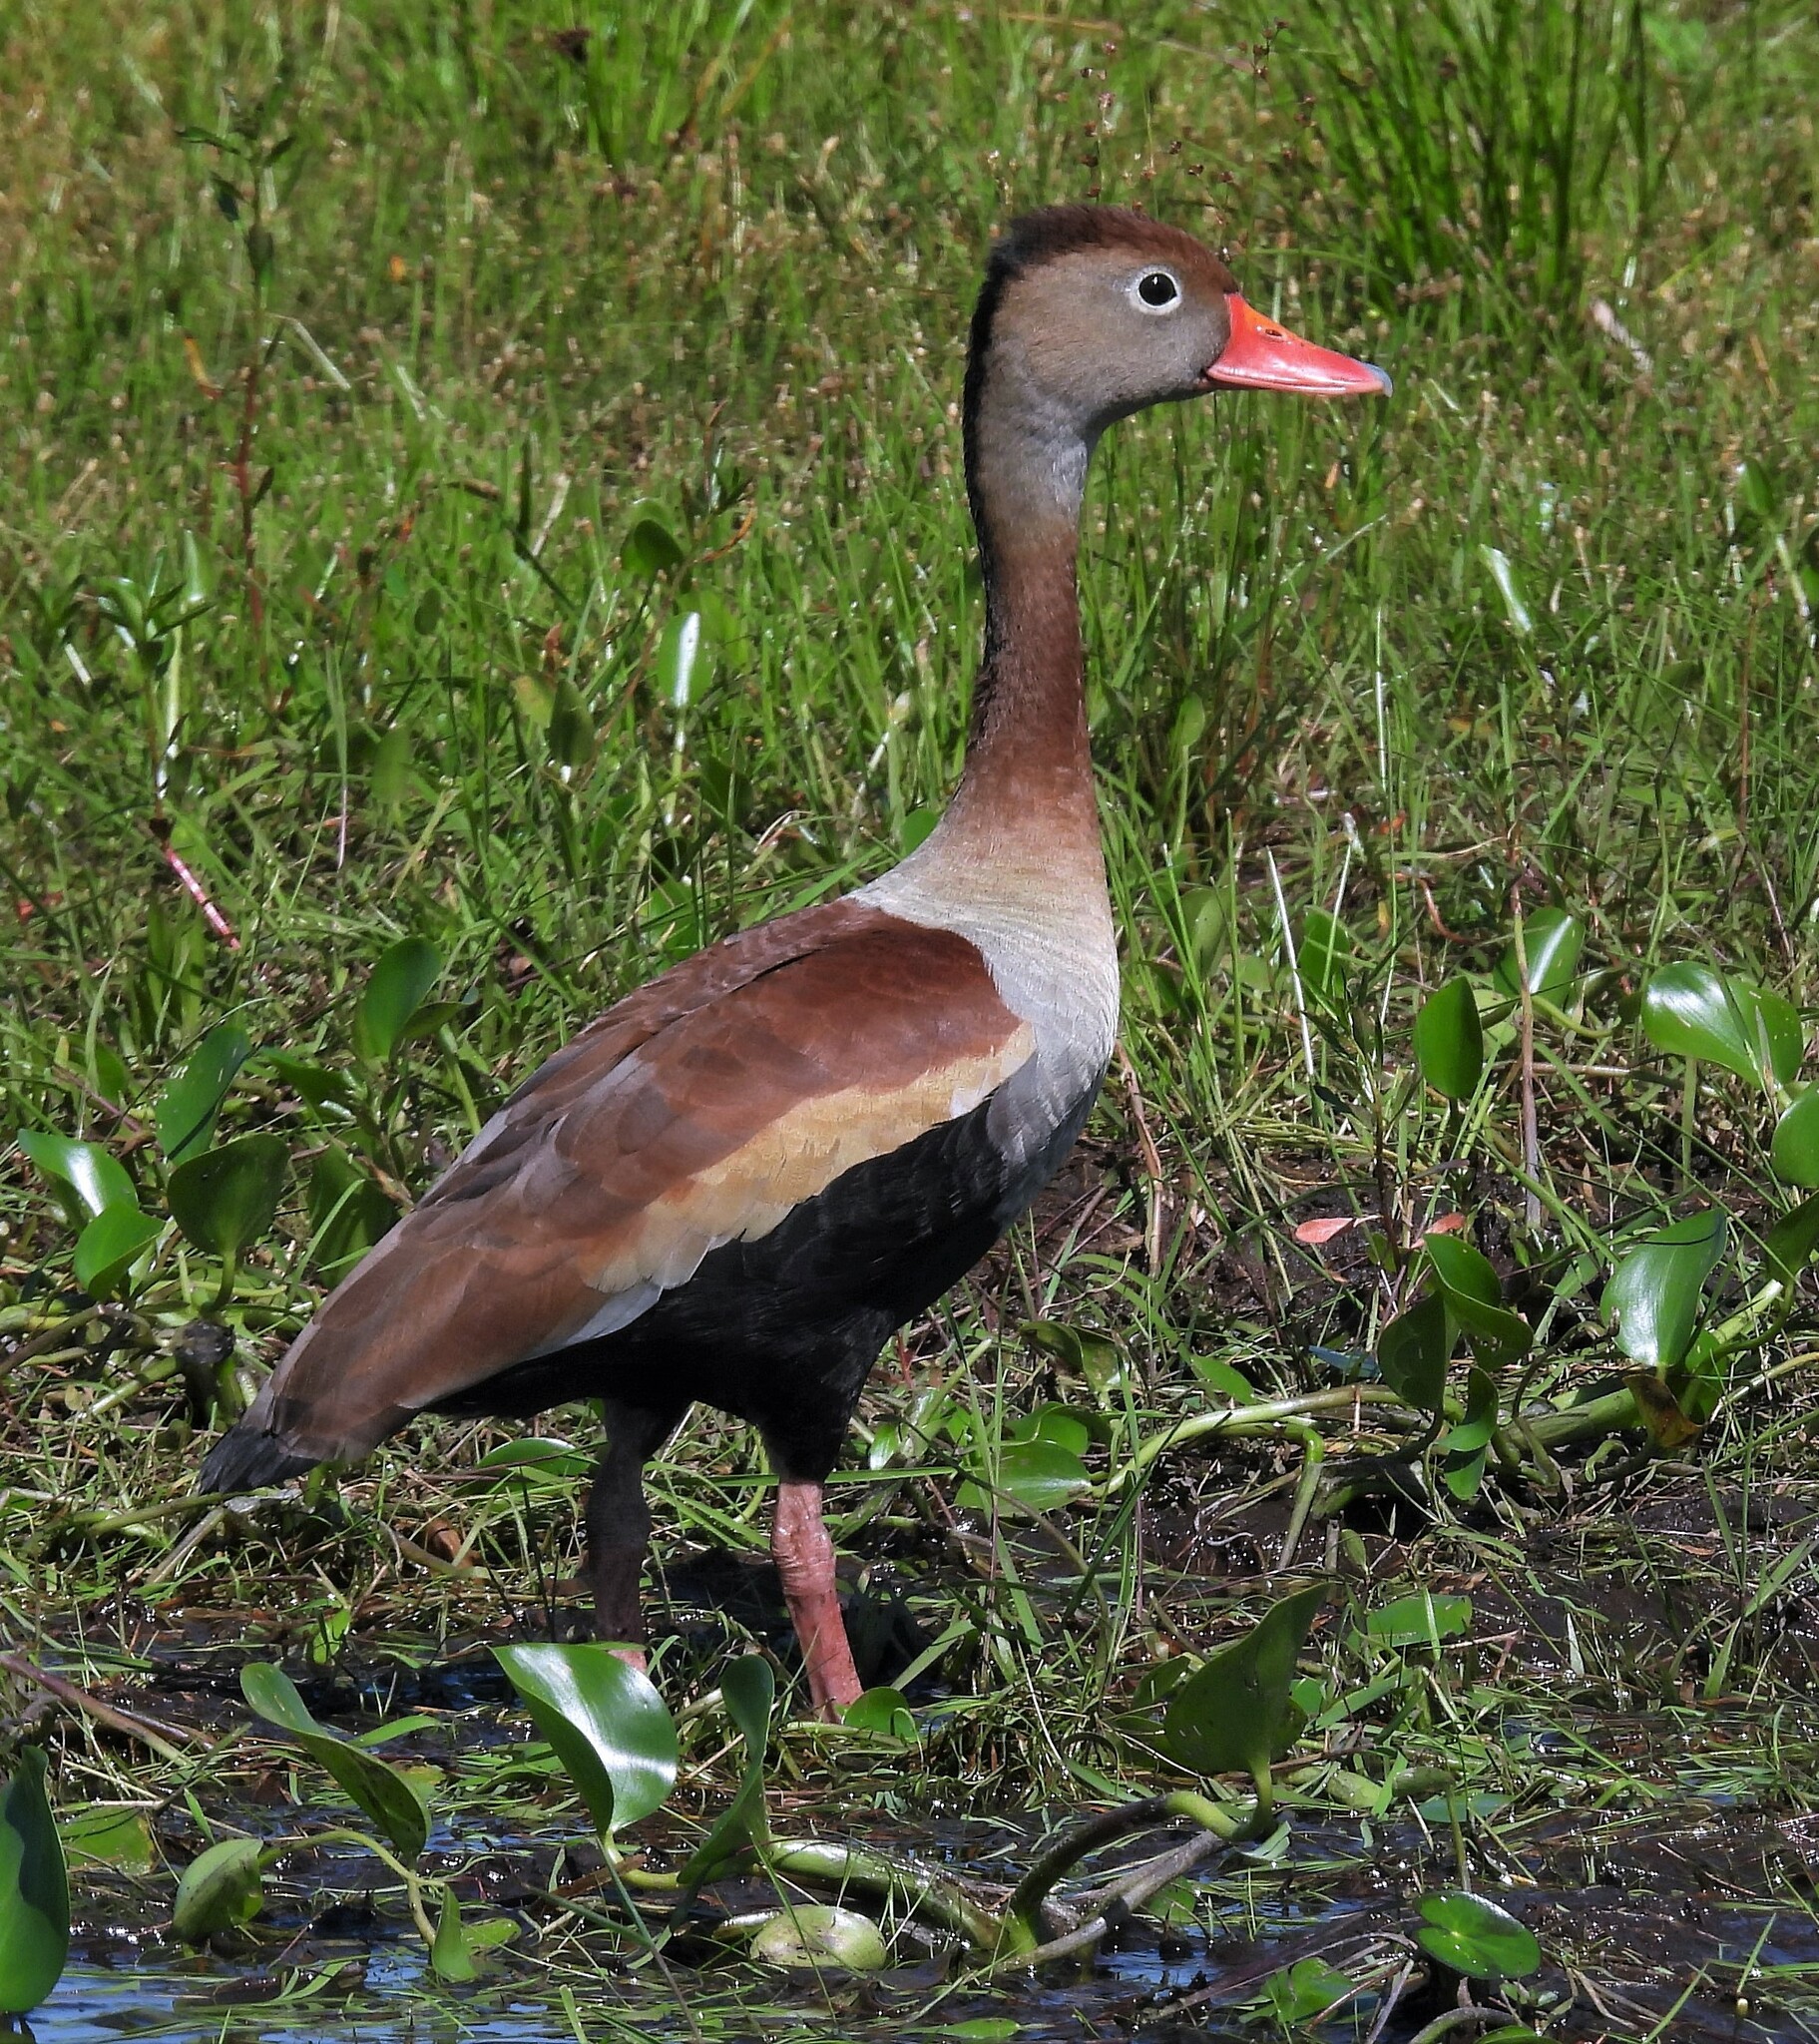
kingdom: Animalia
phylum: Chordata
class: Aves
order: Anseriformes
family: Anatidae
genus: Dendrocygna
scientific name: Dendrocygna autumnalis
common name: Black-bellied whistling duck
